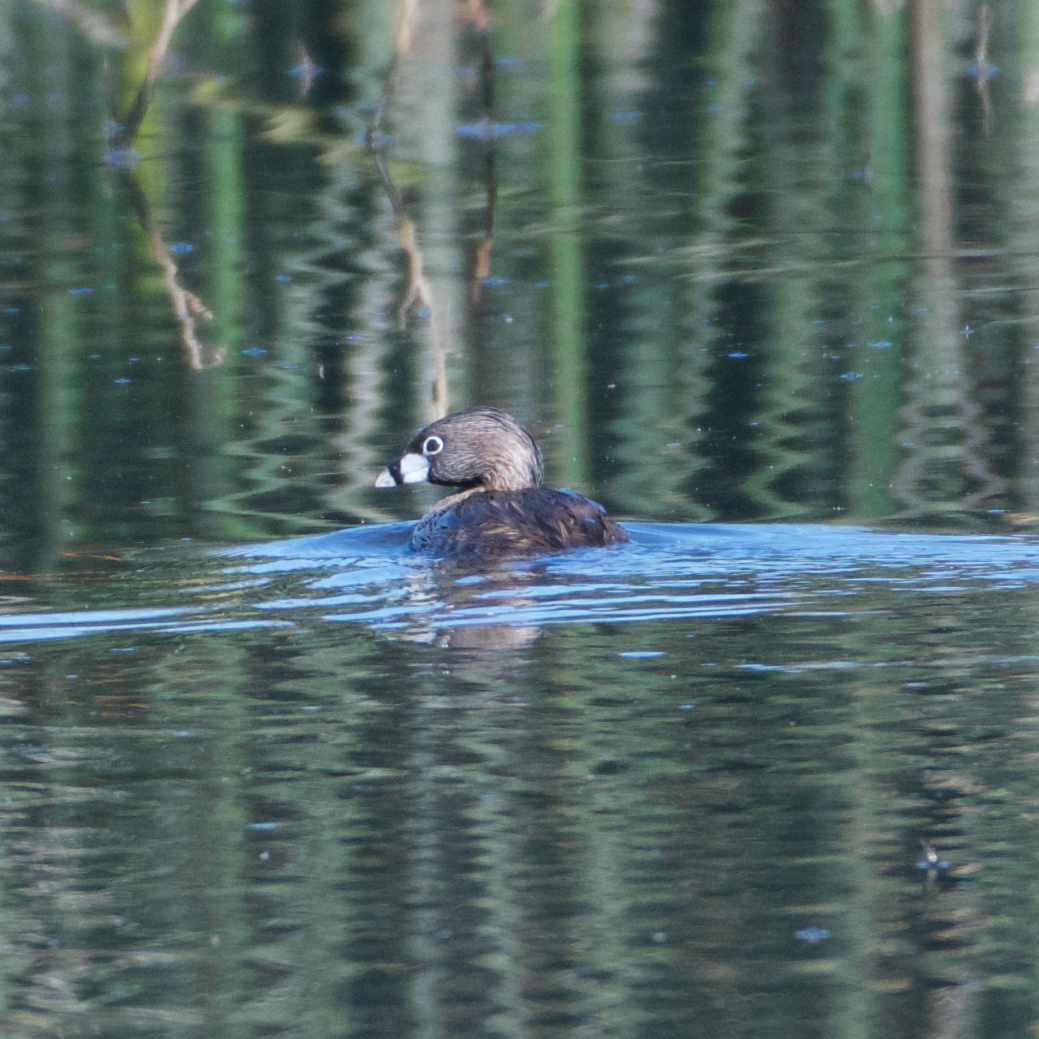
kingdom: Animalia
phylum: Chordata
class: Aves
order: Podicipediformes
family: Podicipedidae
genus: Podilymbus
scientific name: Podilymbus podiceps
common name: Pied-billed grebe
